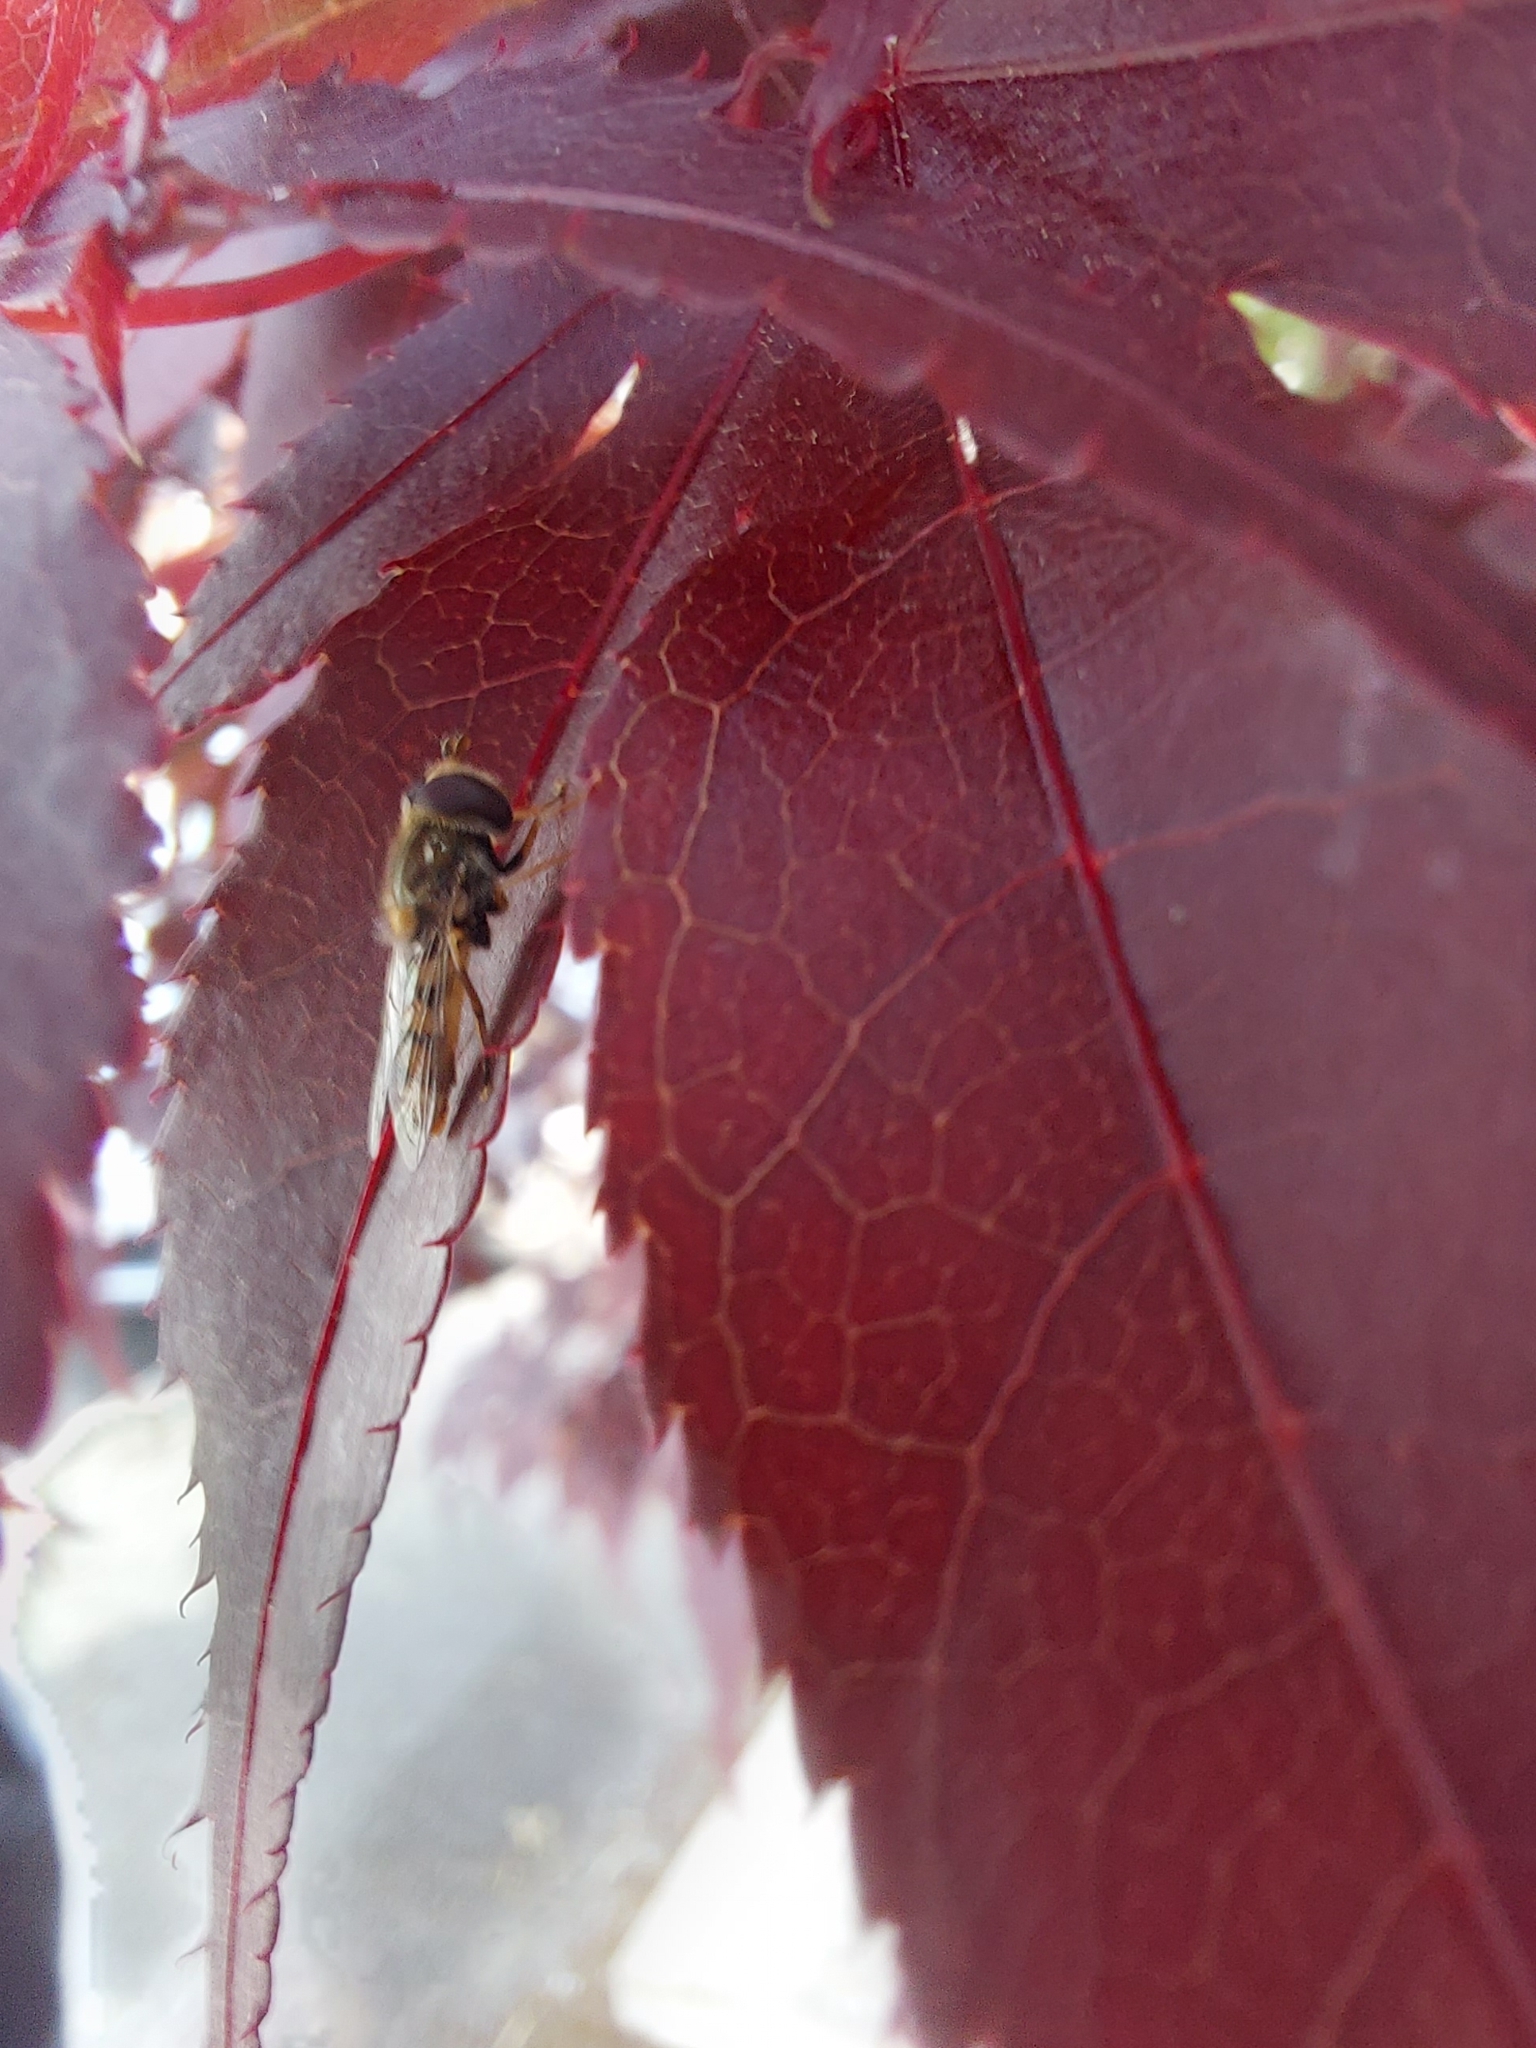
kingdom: Animalia
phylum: Arthropoda
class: Insecta
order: Diptera
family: Syrphidae
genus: Eupeodes
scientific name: Eupeodes corollae
